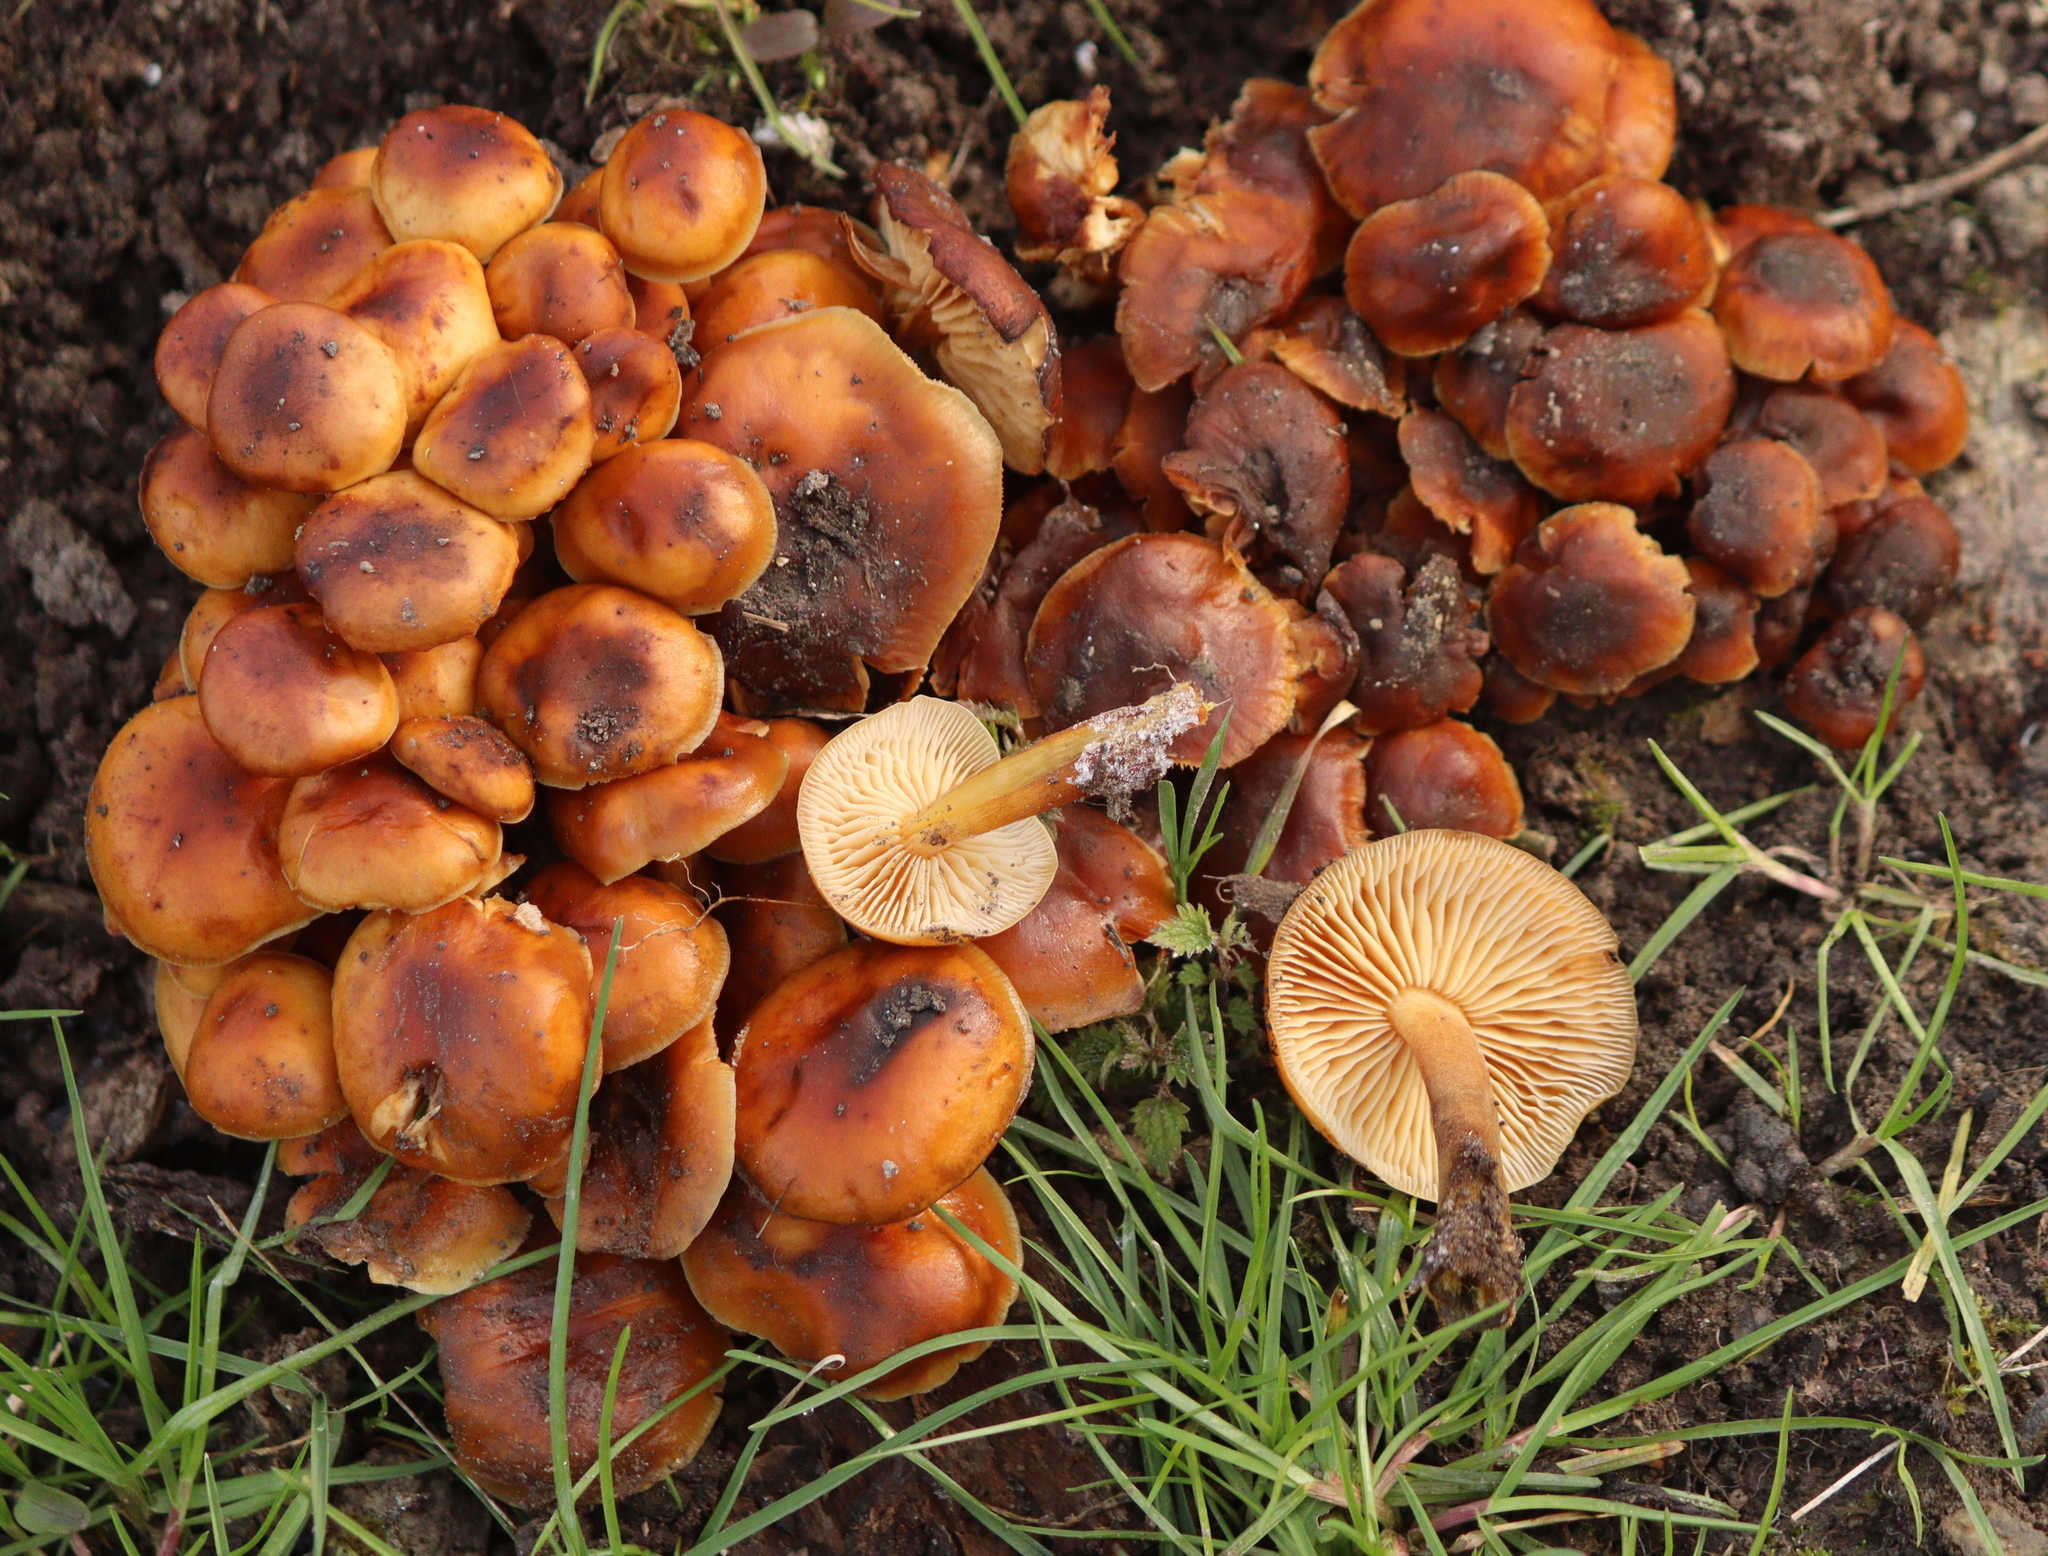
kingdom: Fungi
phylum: Basidiomycota
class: Agaricomycetes
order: Agaricales
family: Physalacriaceae
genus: Flammulina
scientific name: Flammulina
